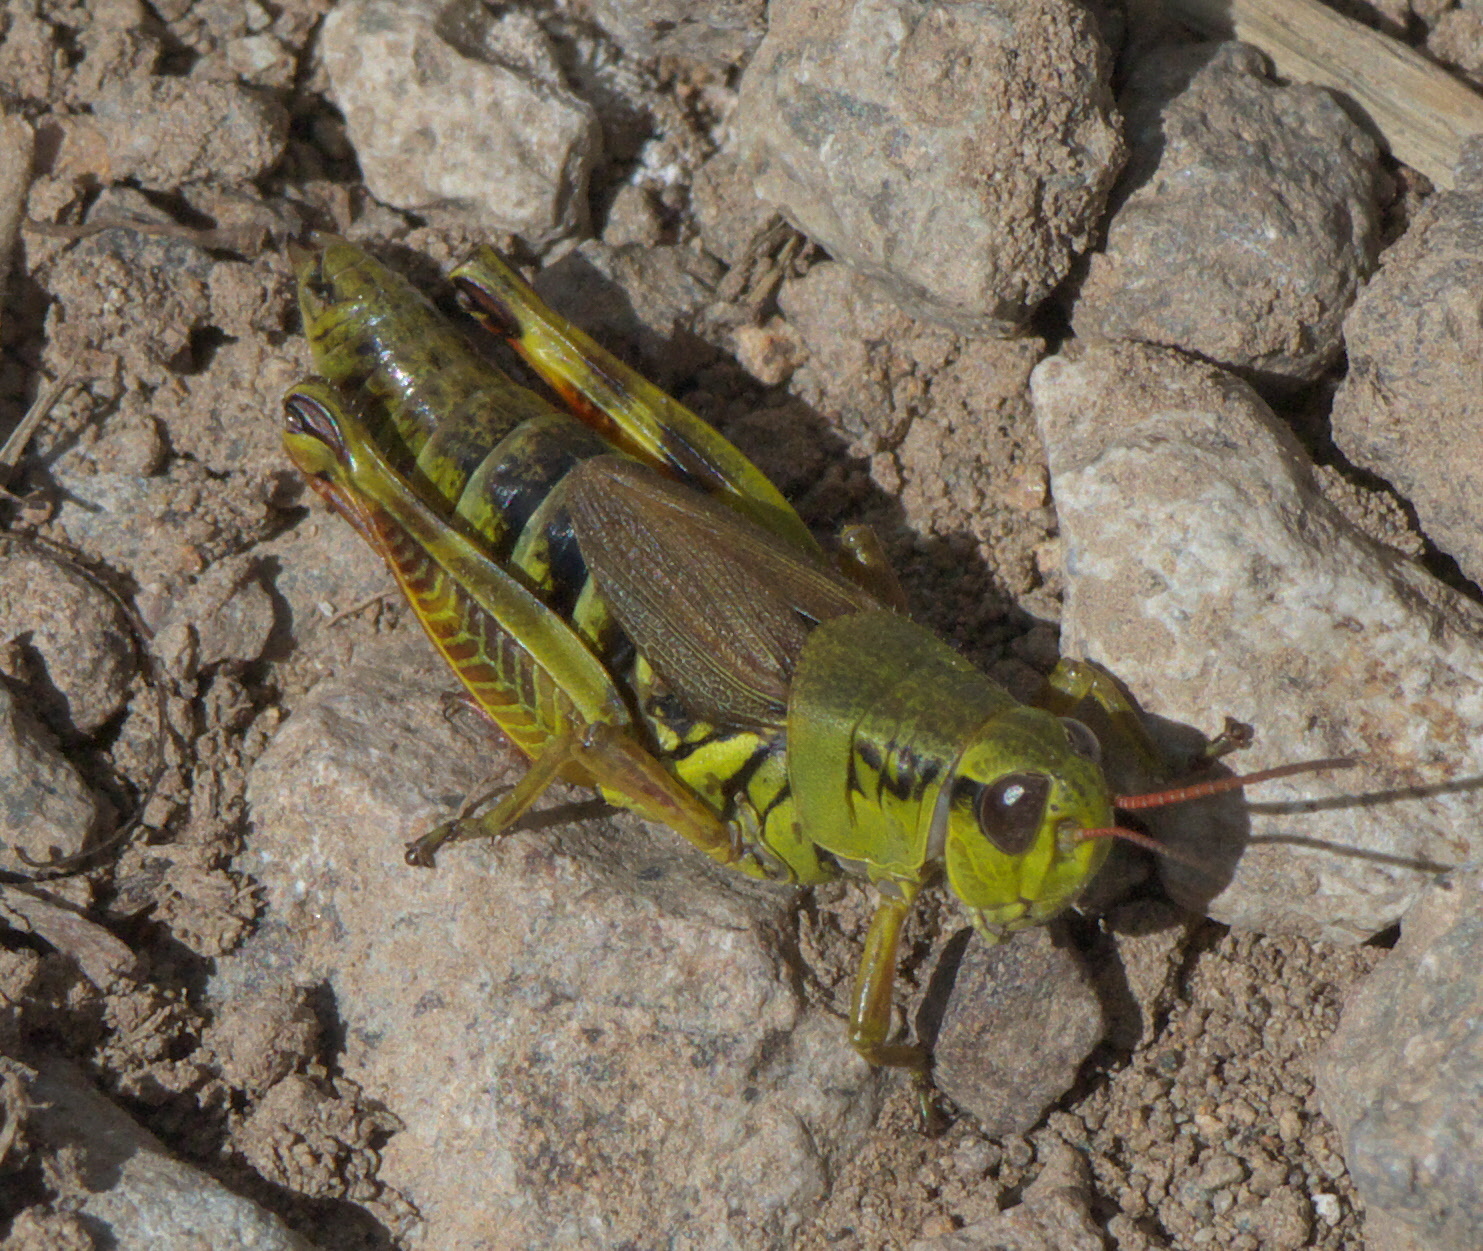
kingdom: Animalia
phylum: Arthropoda
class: Insecta
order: Orthoptera
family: Acrididae
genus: Melanoplus
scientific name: Melanoplus borealis
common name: Northern grasshopper
